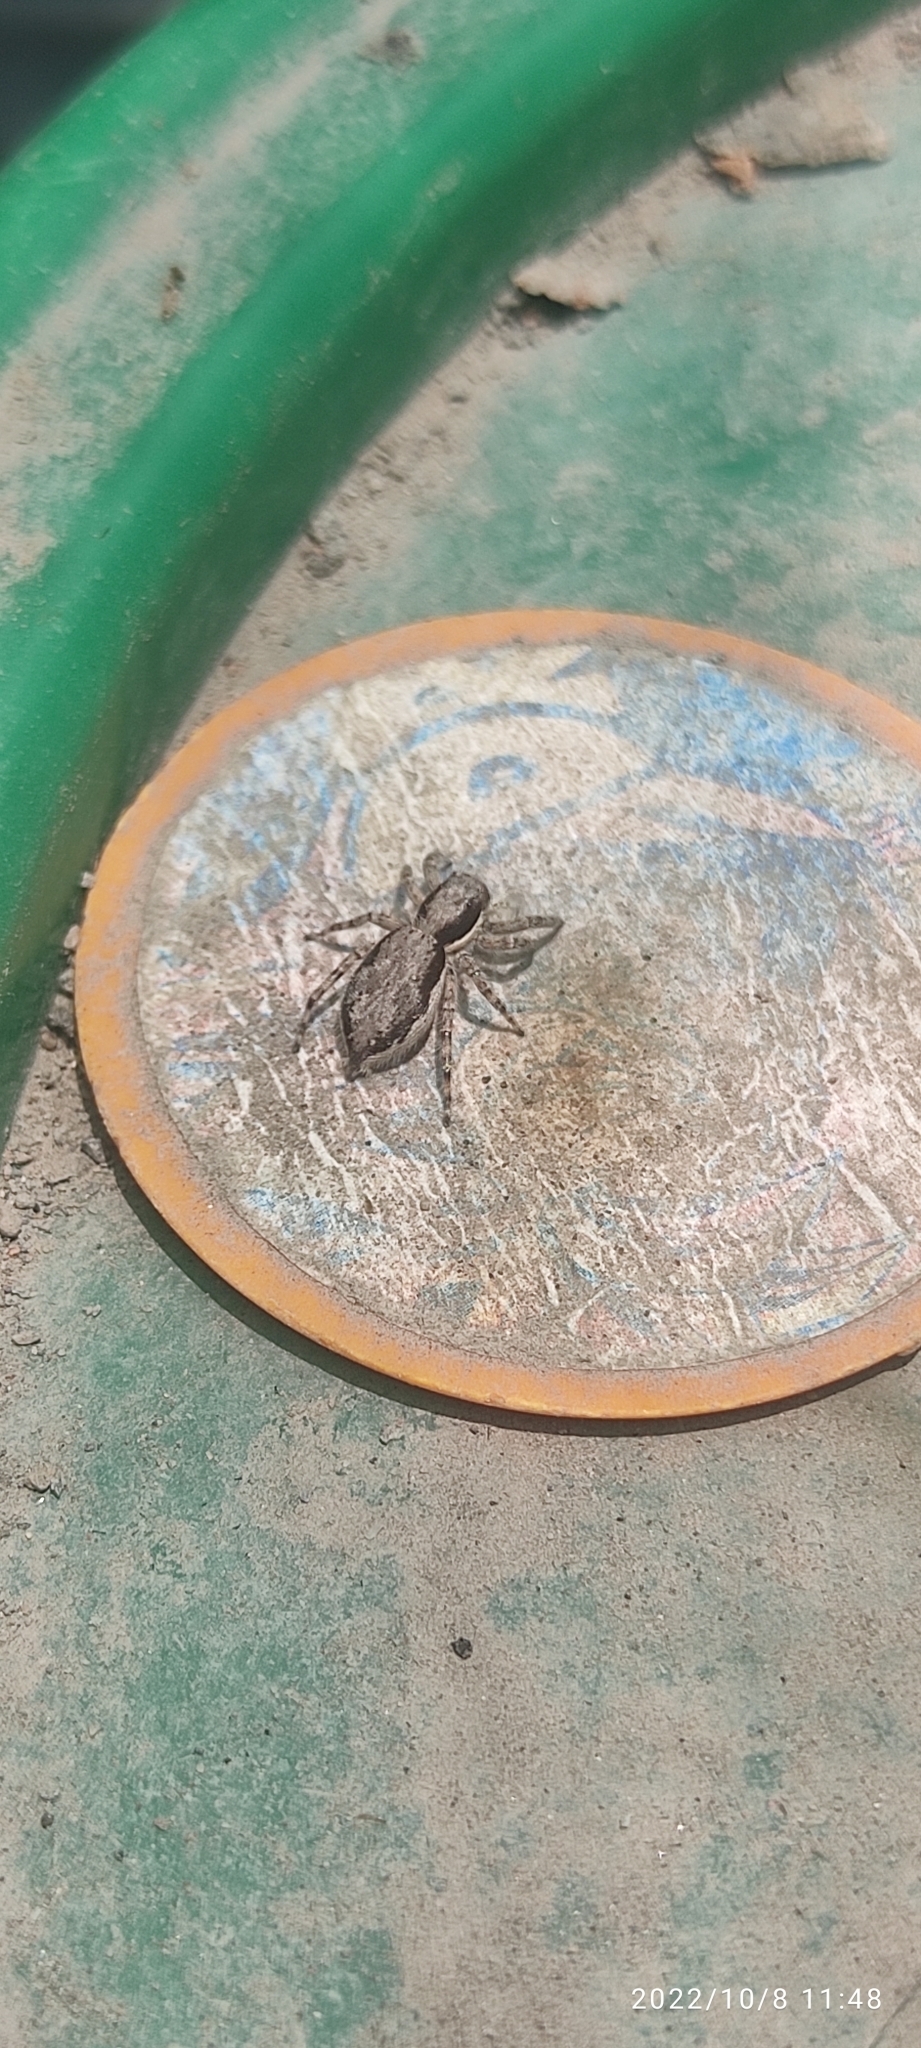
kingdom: Animalia
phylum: Arthropoda
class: Arachnida
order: Araneae
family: Salticidae
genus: Menemerus
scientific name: Menemerus bivittatus
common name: Gray wall jumper
